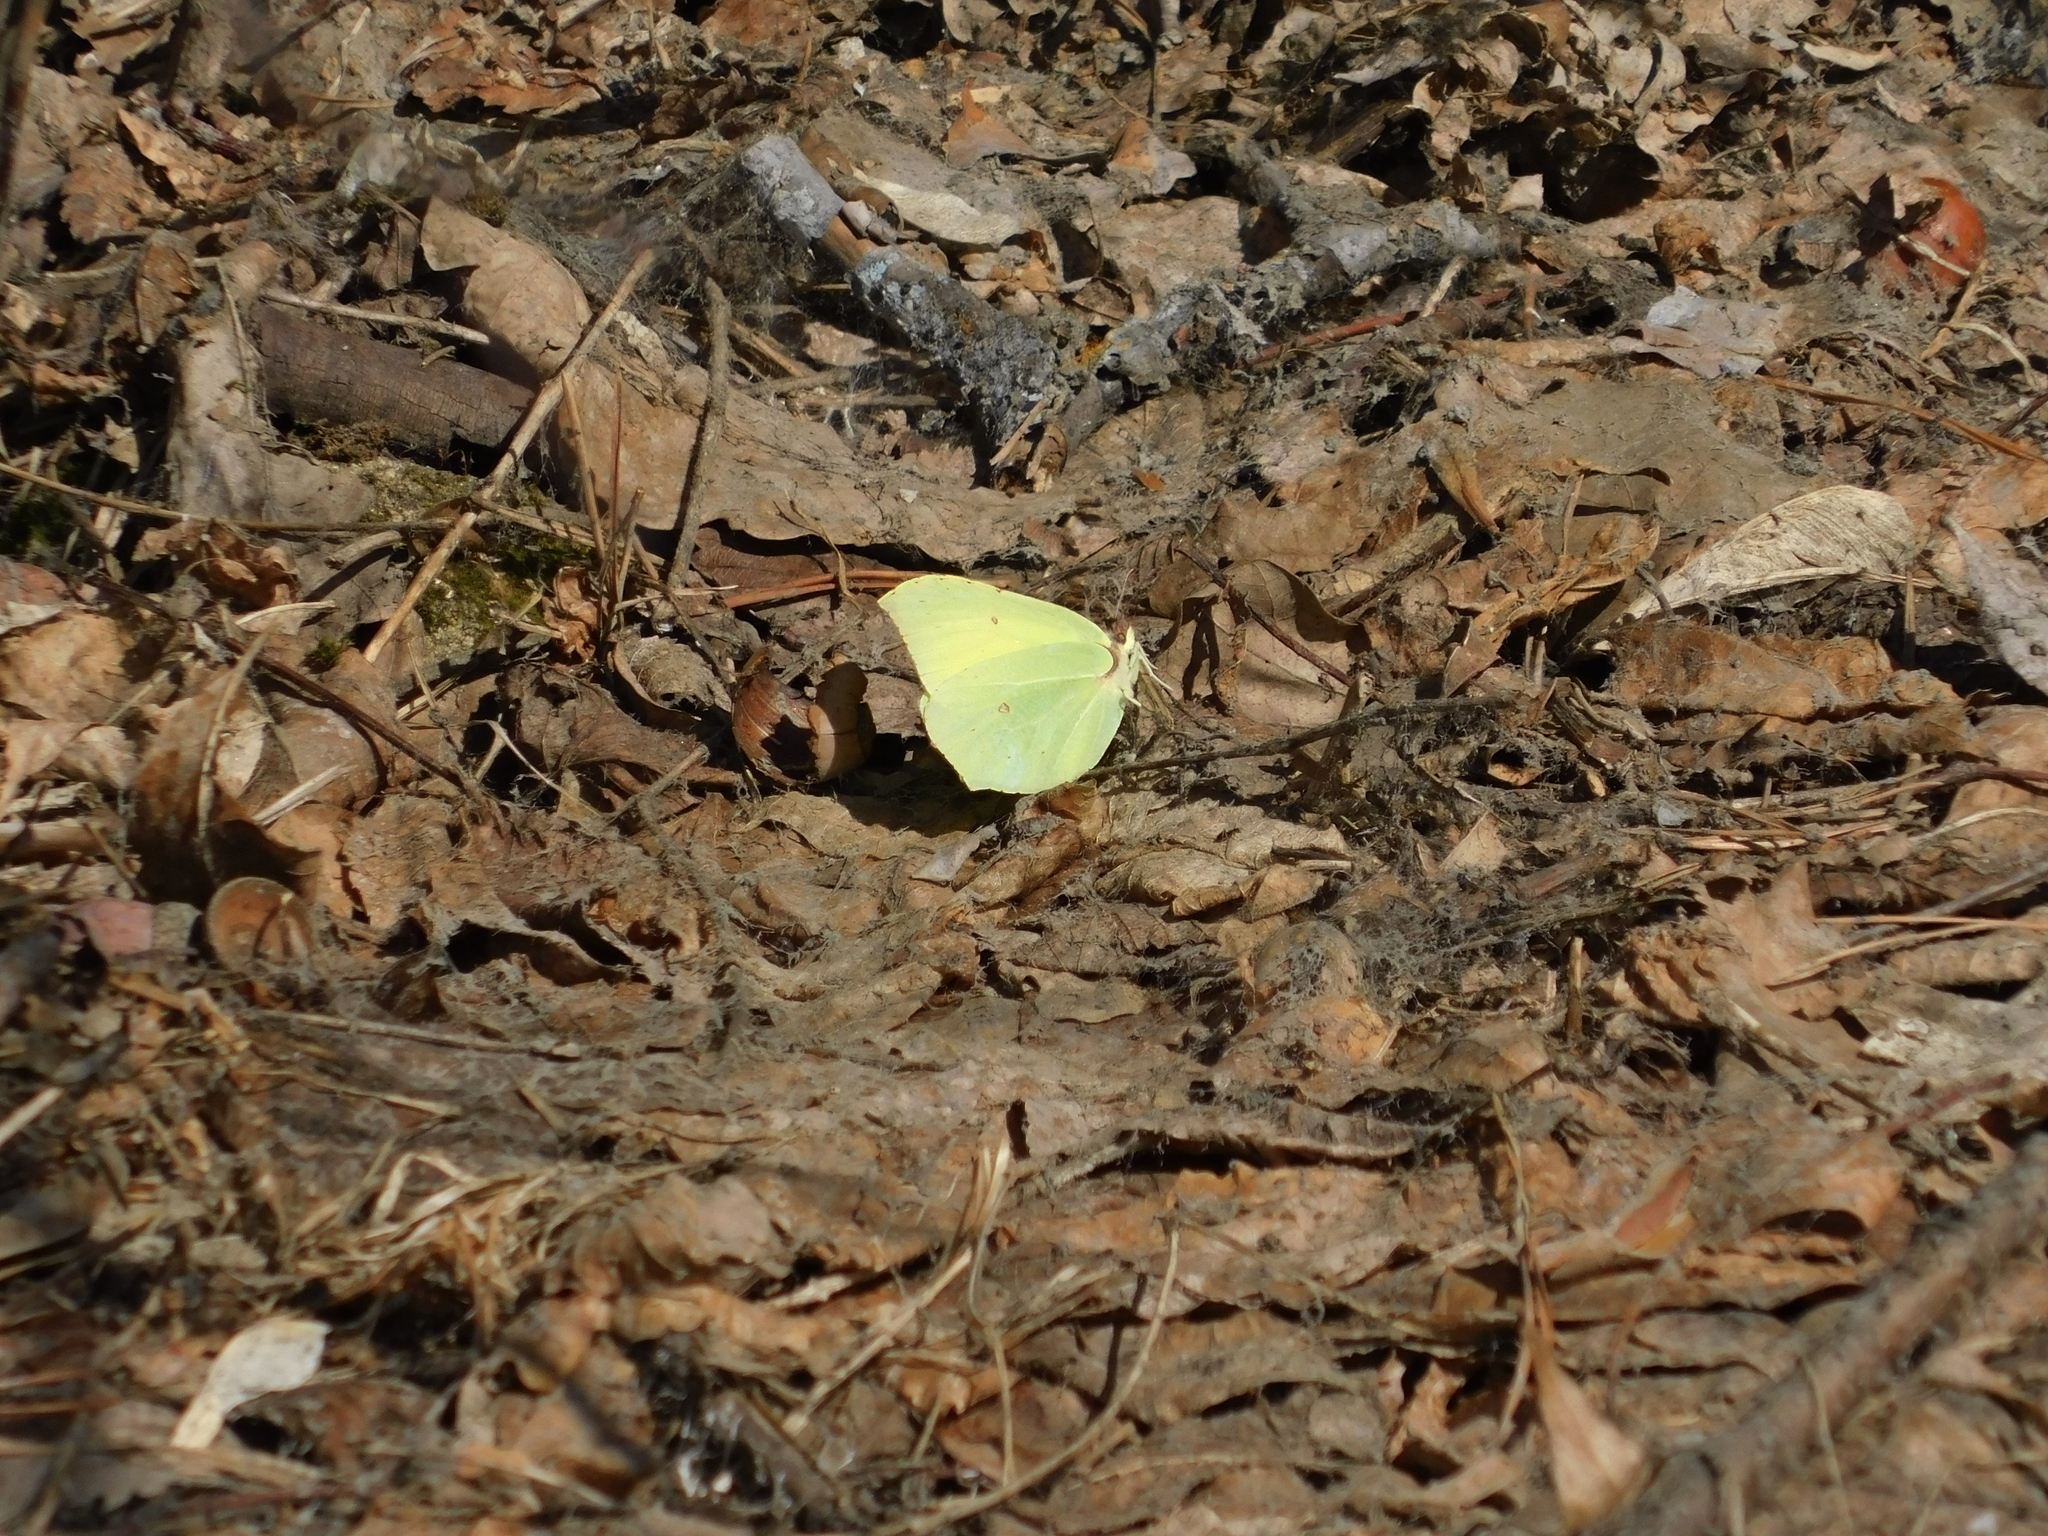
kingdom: Animalia
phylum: Arthropoda
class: Insecta
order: Lepidoptera
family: Pieridae
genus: Gonepteryx
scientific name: Gonepteryx rhamni
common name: Brimstone
